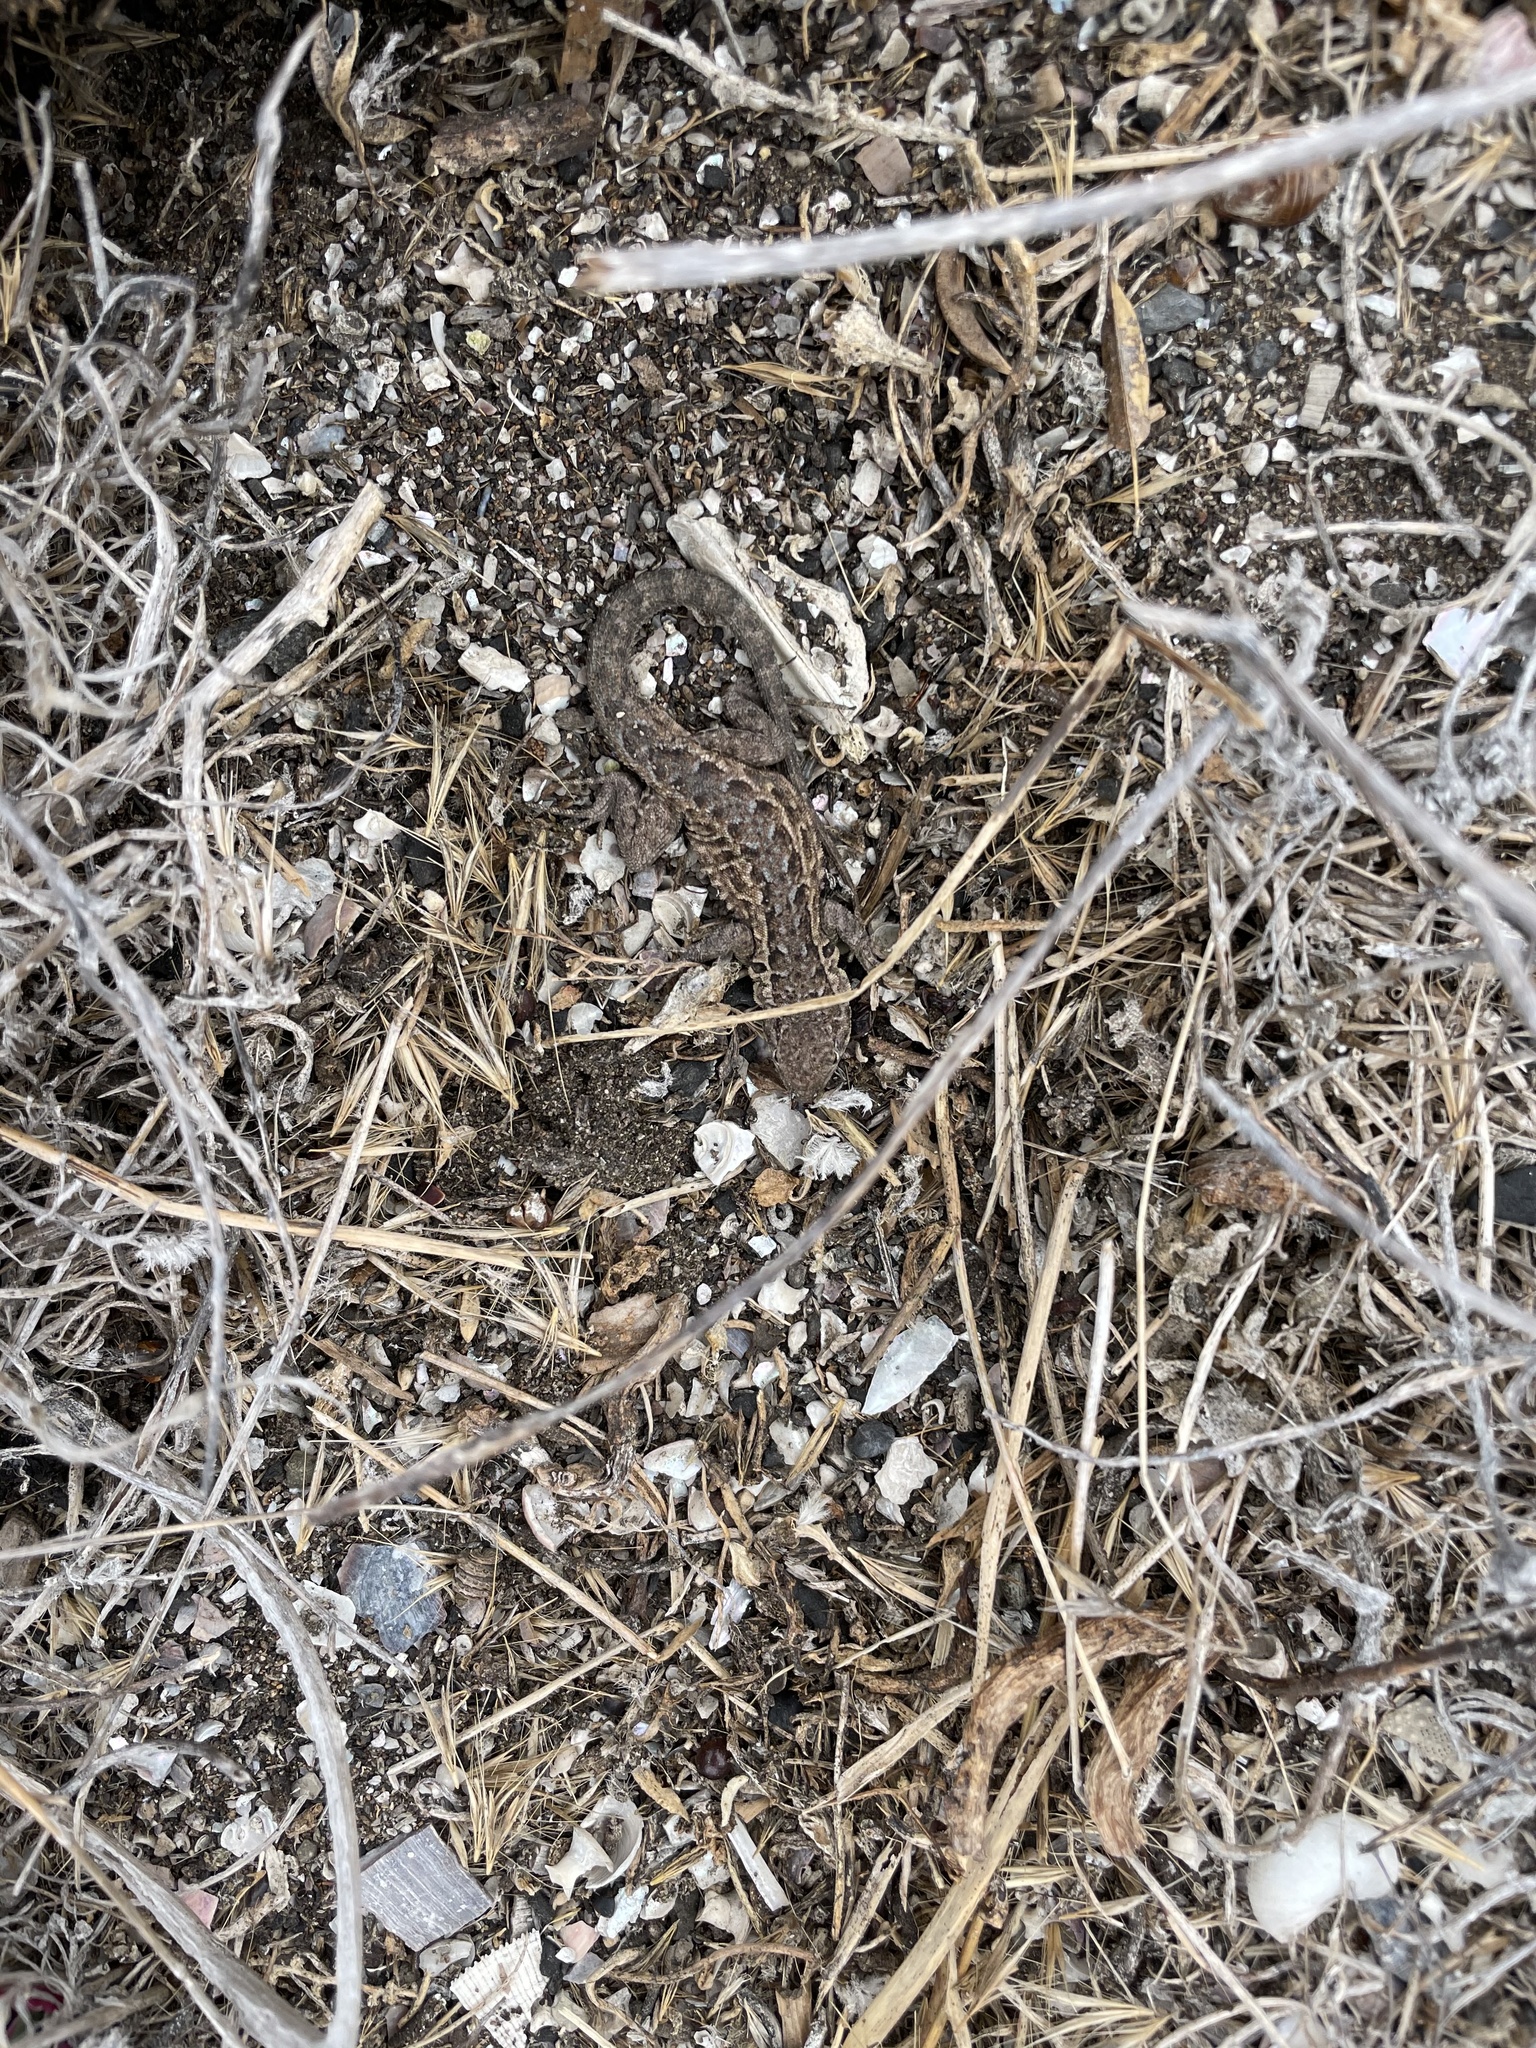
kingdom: Animalia
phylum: Chordata
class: Squamata
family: Phrynosomatidae
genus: Uta
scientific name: Uta stansburiana
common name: Side-blotched lizard
